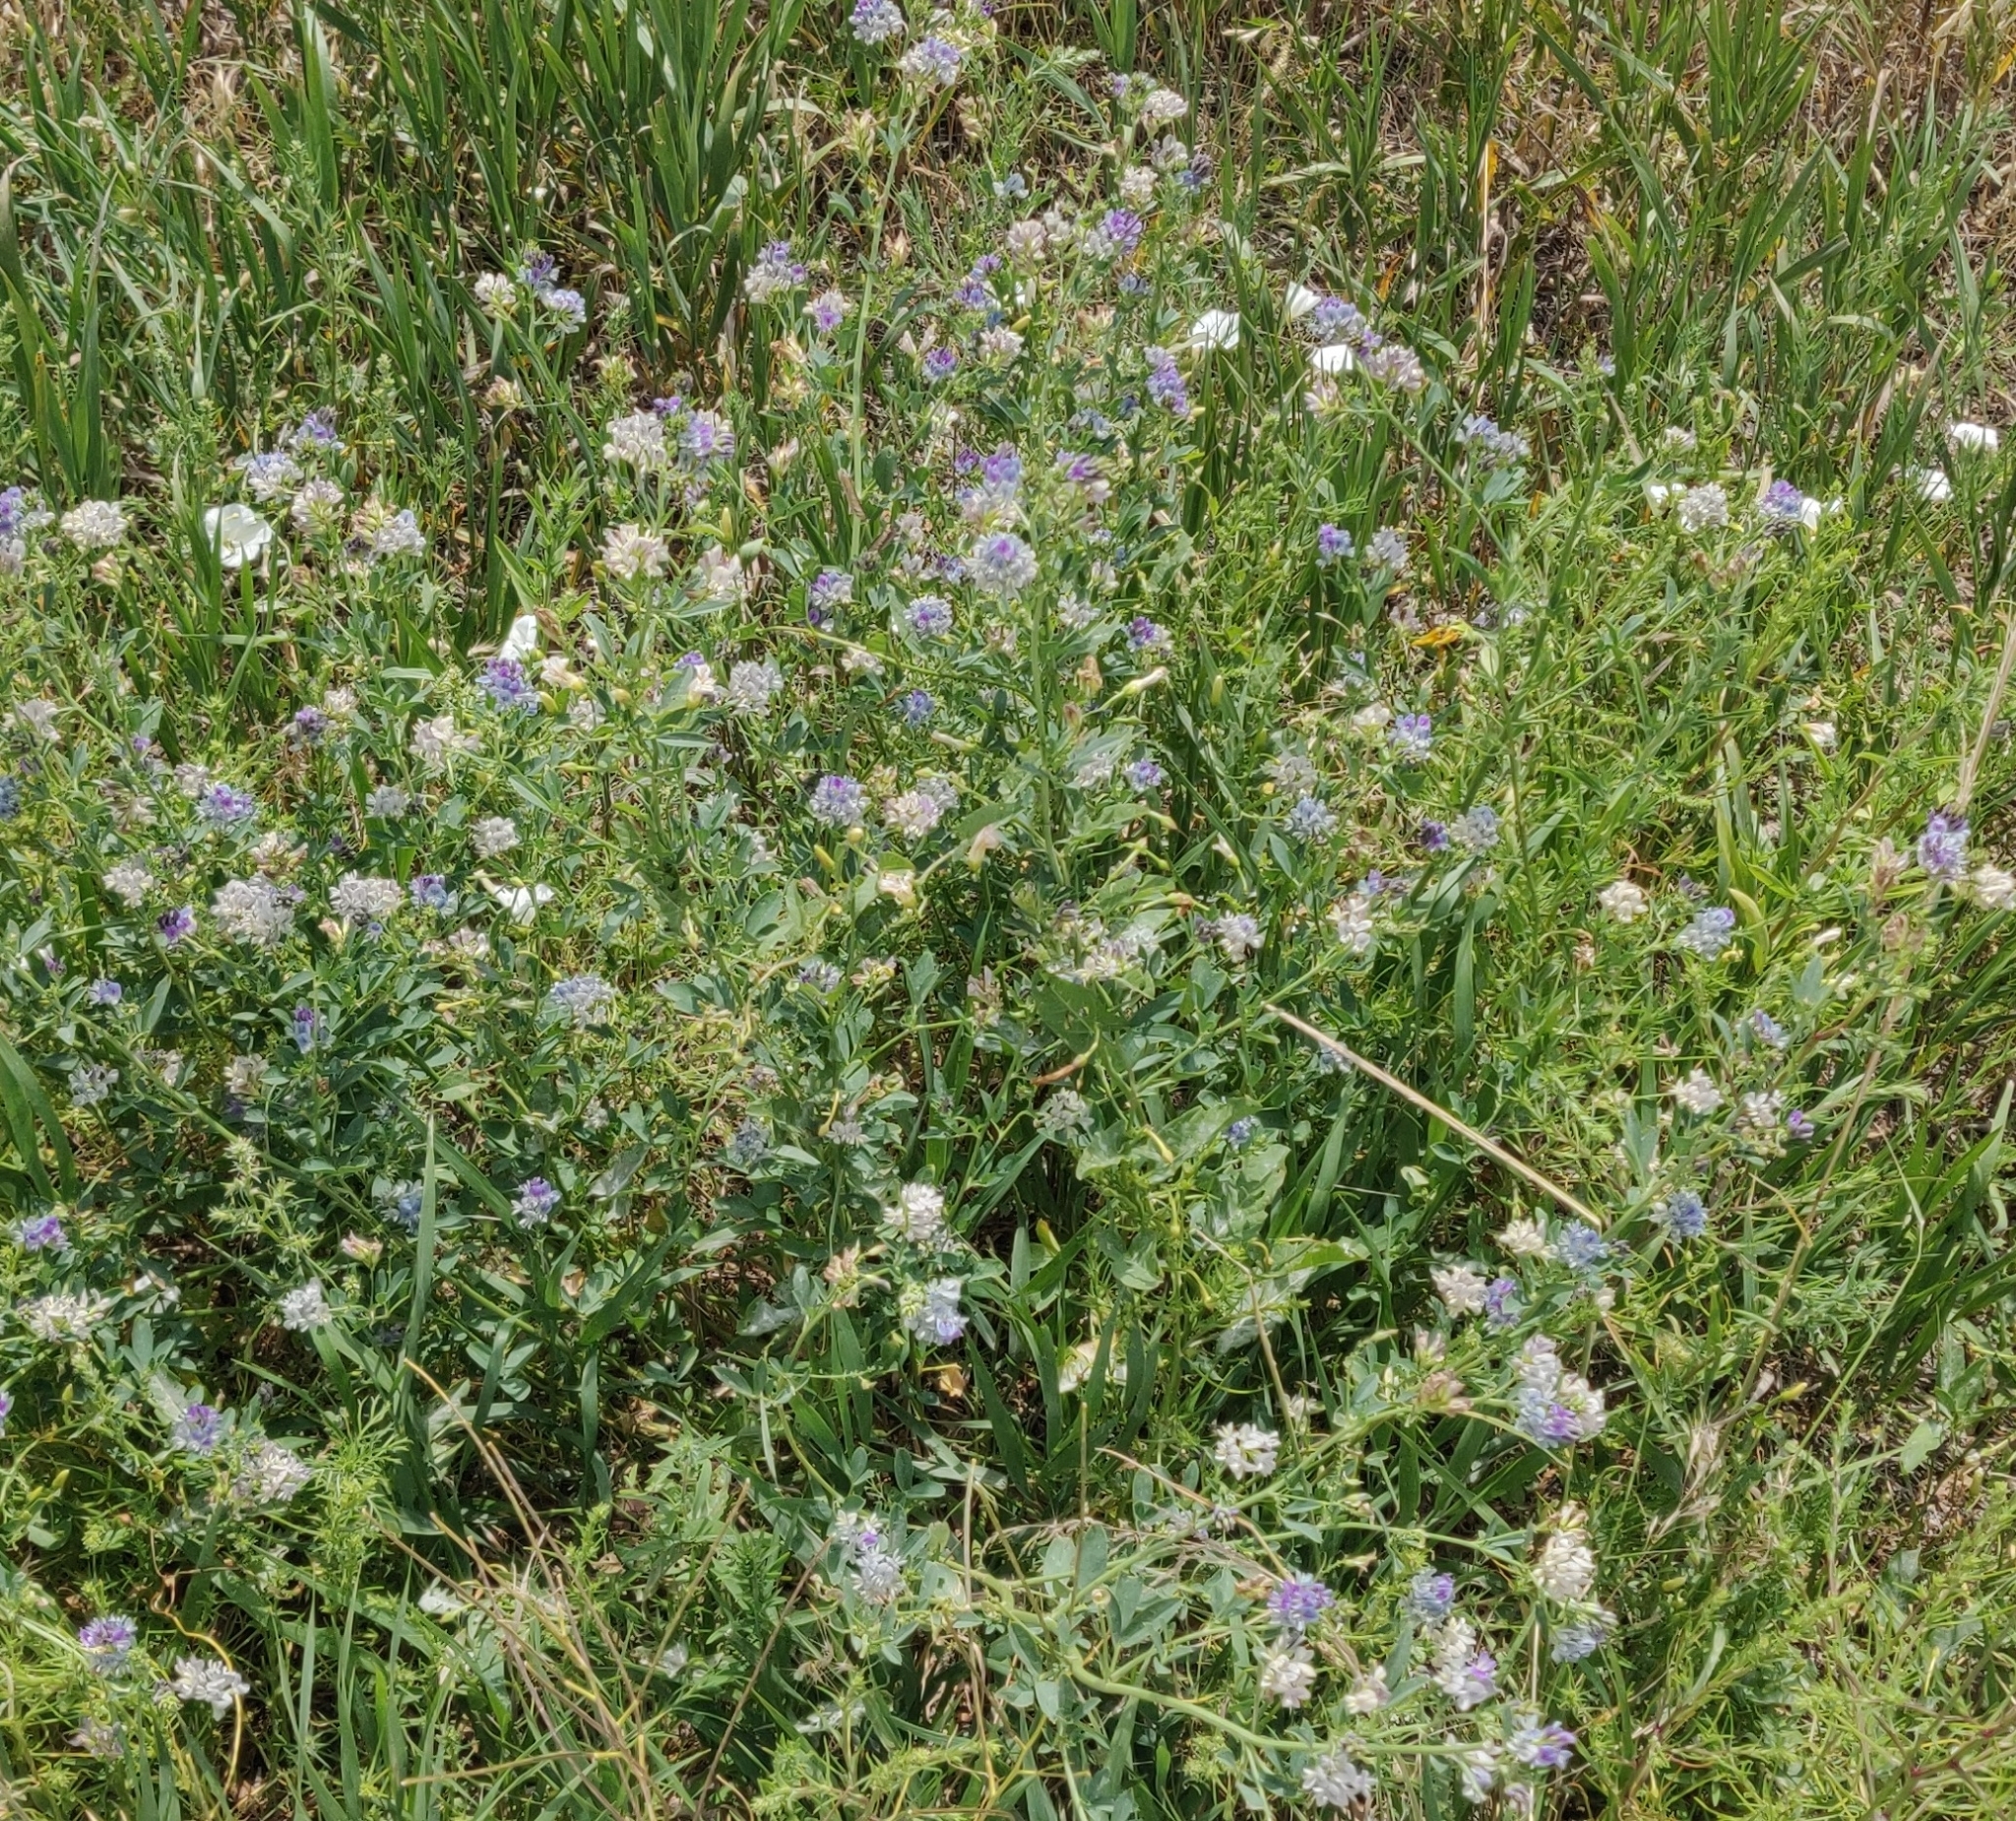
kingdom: Plantae
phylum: Tracheophyta
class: Magnoliopsida
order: Fabales
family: Fabaceae
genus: Medicago
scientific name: Medicago sativa
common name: Alfalfa
